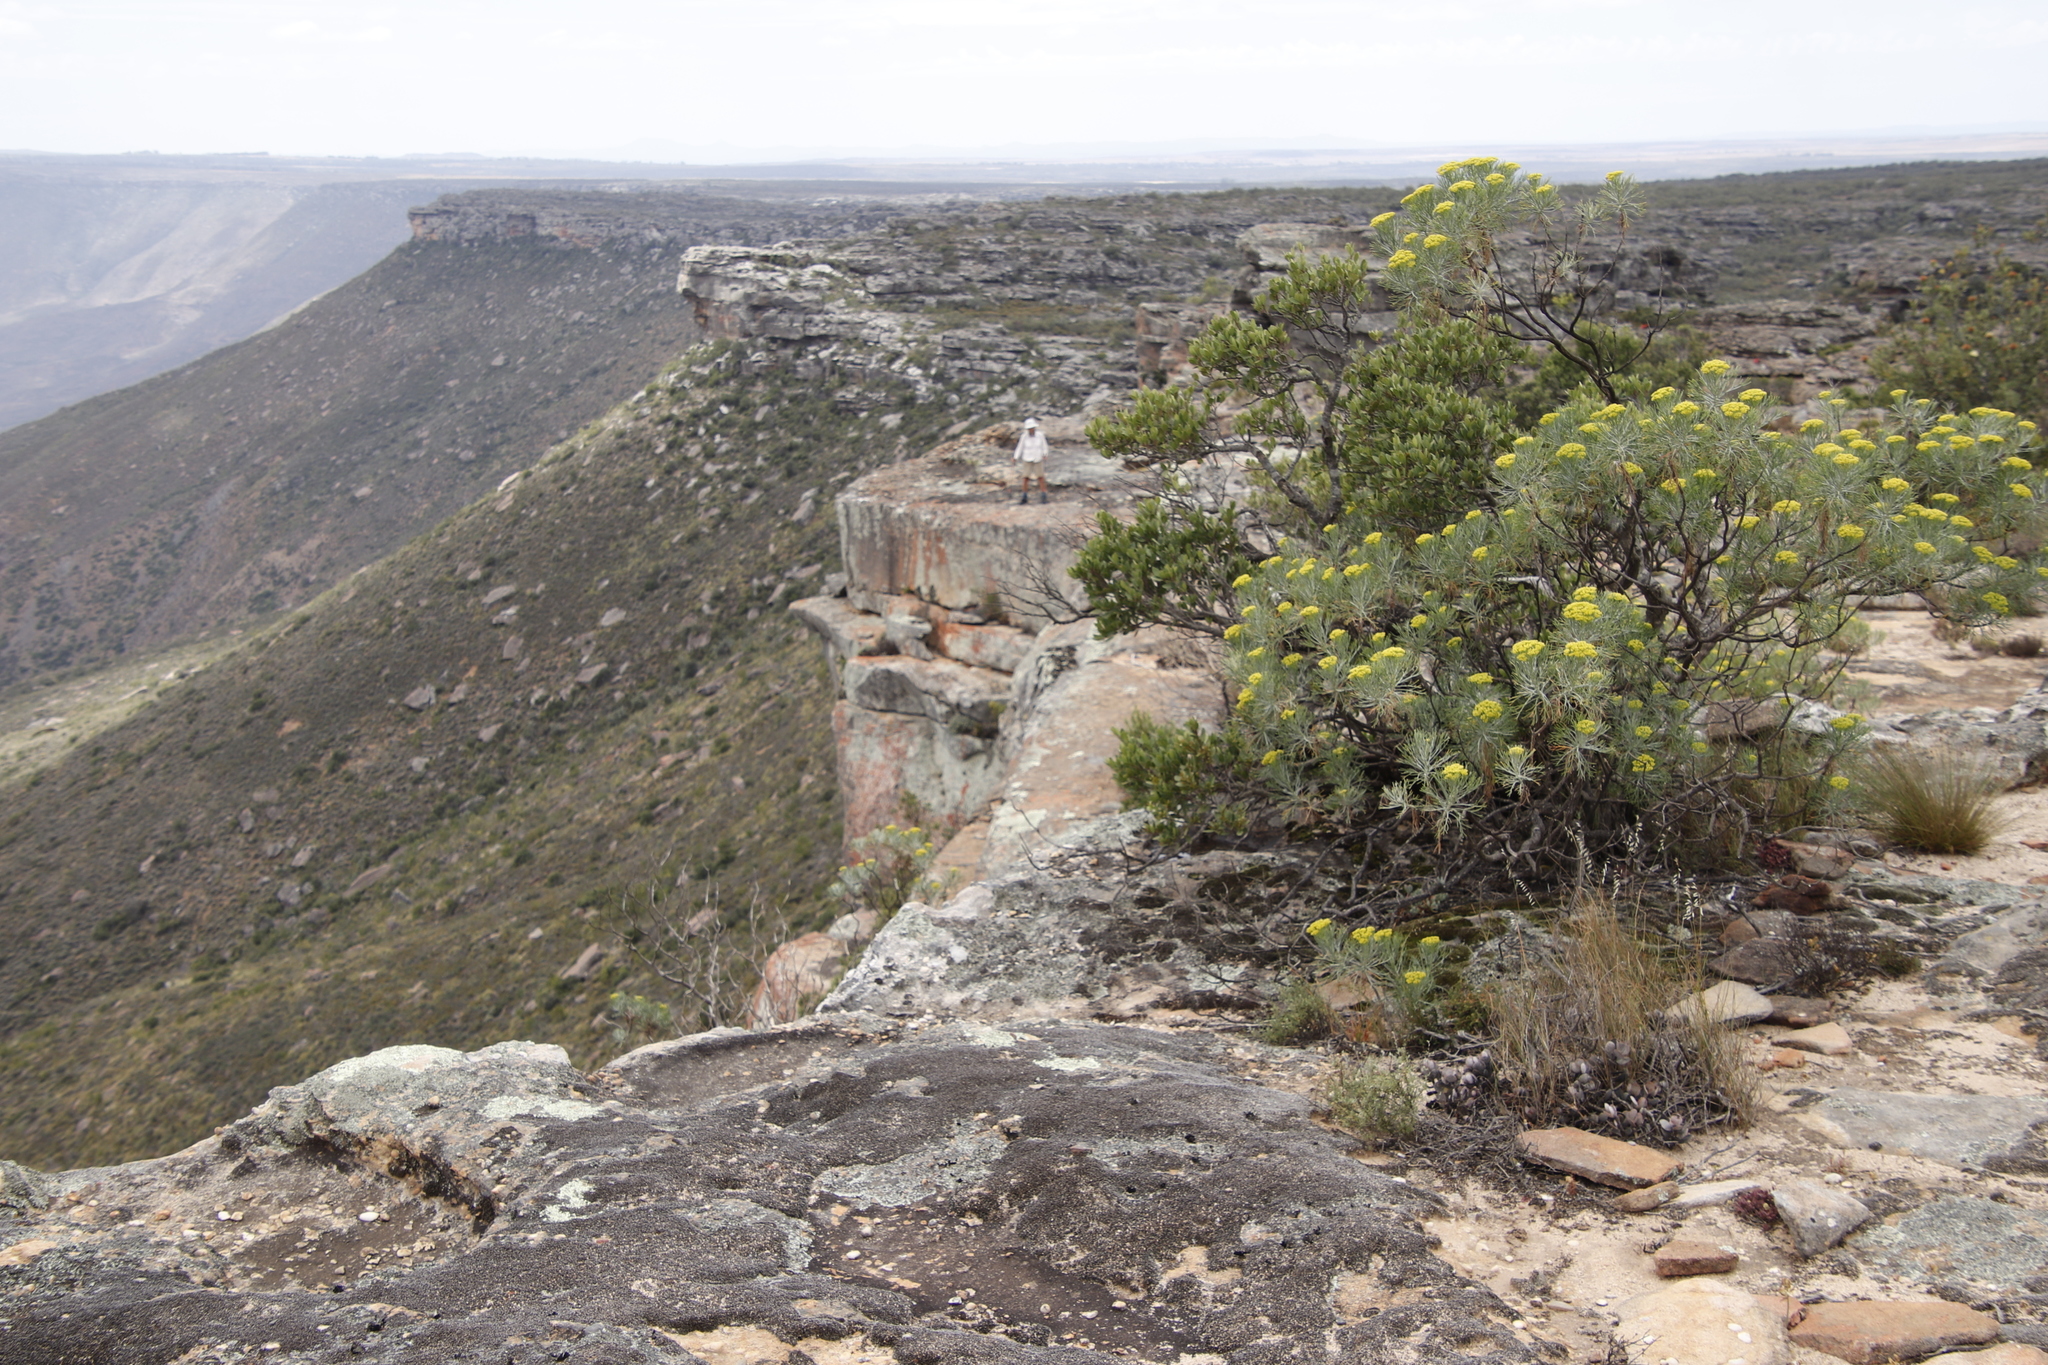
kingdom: Plantae
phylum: Tracheophyta
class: Magnoliopsida
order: Asterales
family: Asteraceae
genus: Hymenolepis
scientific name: Hymenolepis crithmifolia
